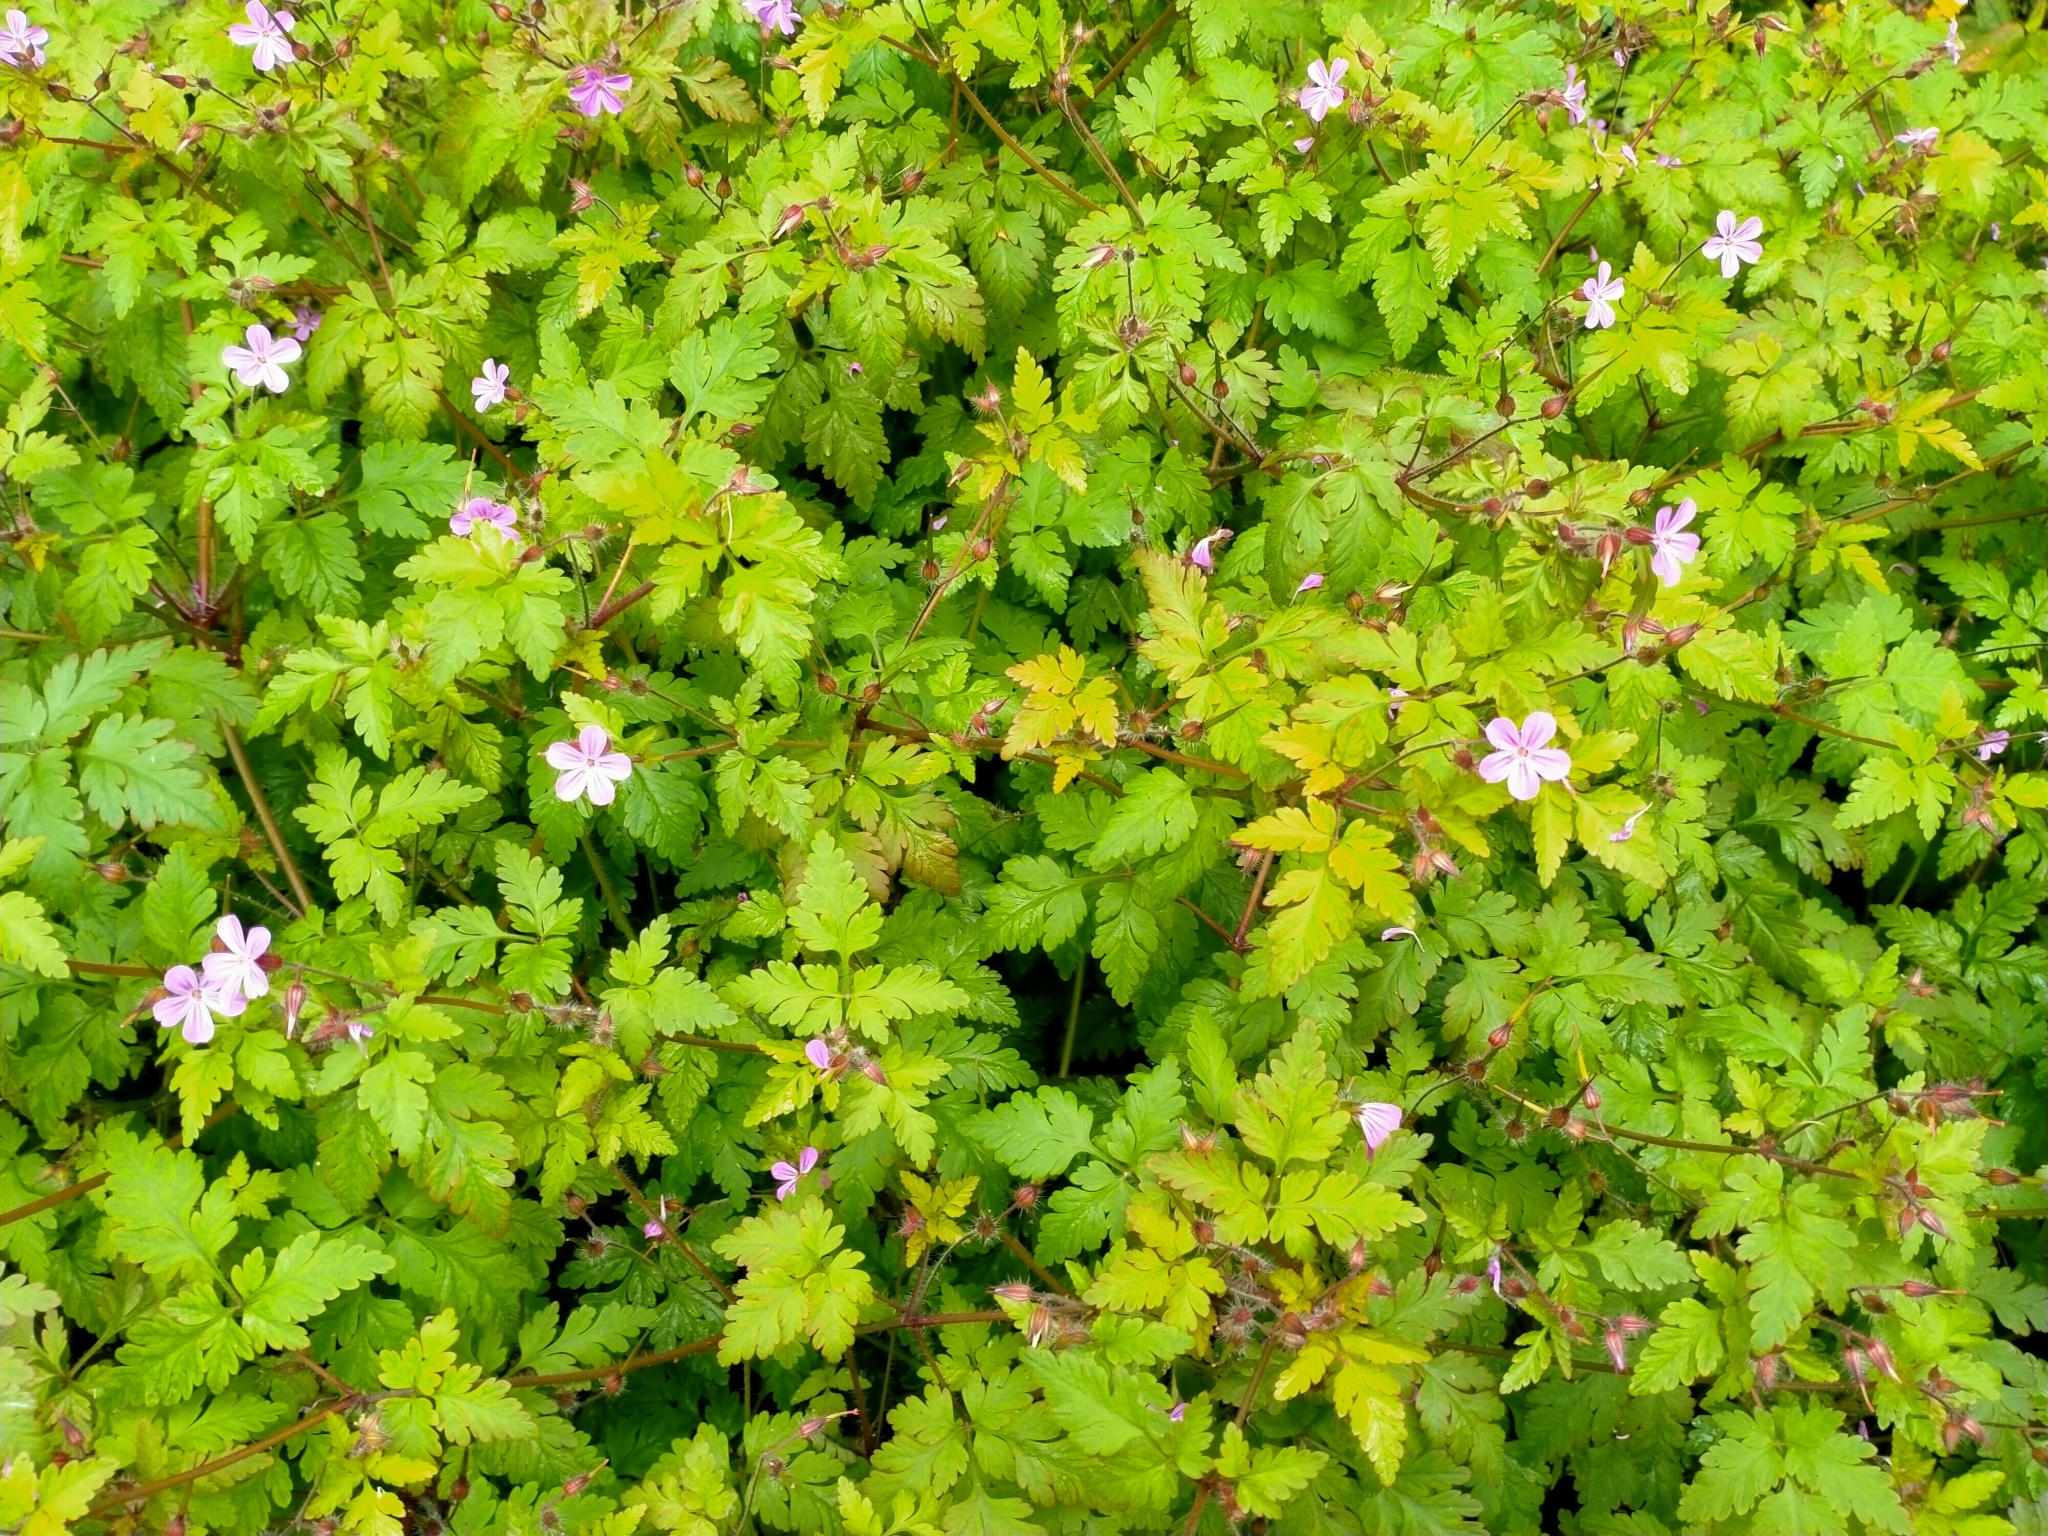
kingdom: Plantae
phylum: Tracheophyta
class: Magnoliopsida
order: Geraniales
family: Geraniaceae
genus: Geranium
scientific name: Geranium robertianum
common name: Herb-robert
